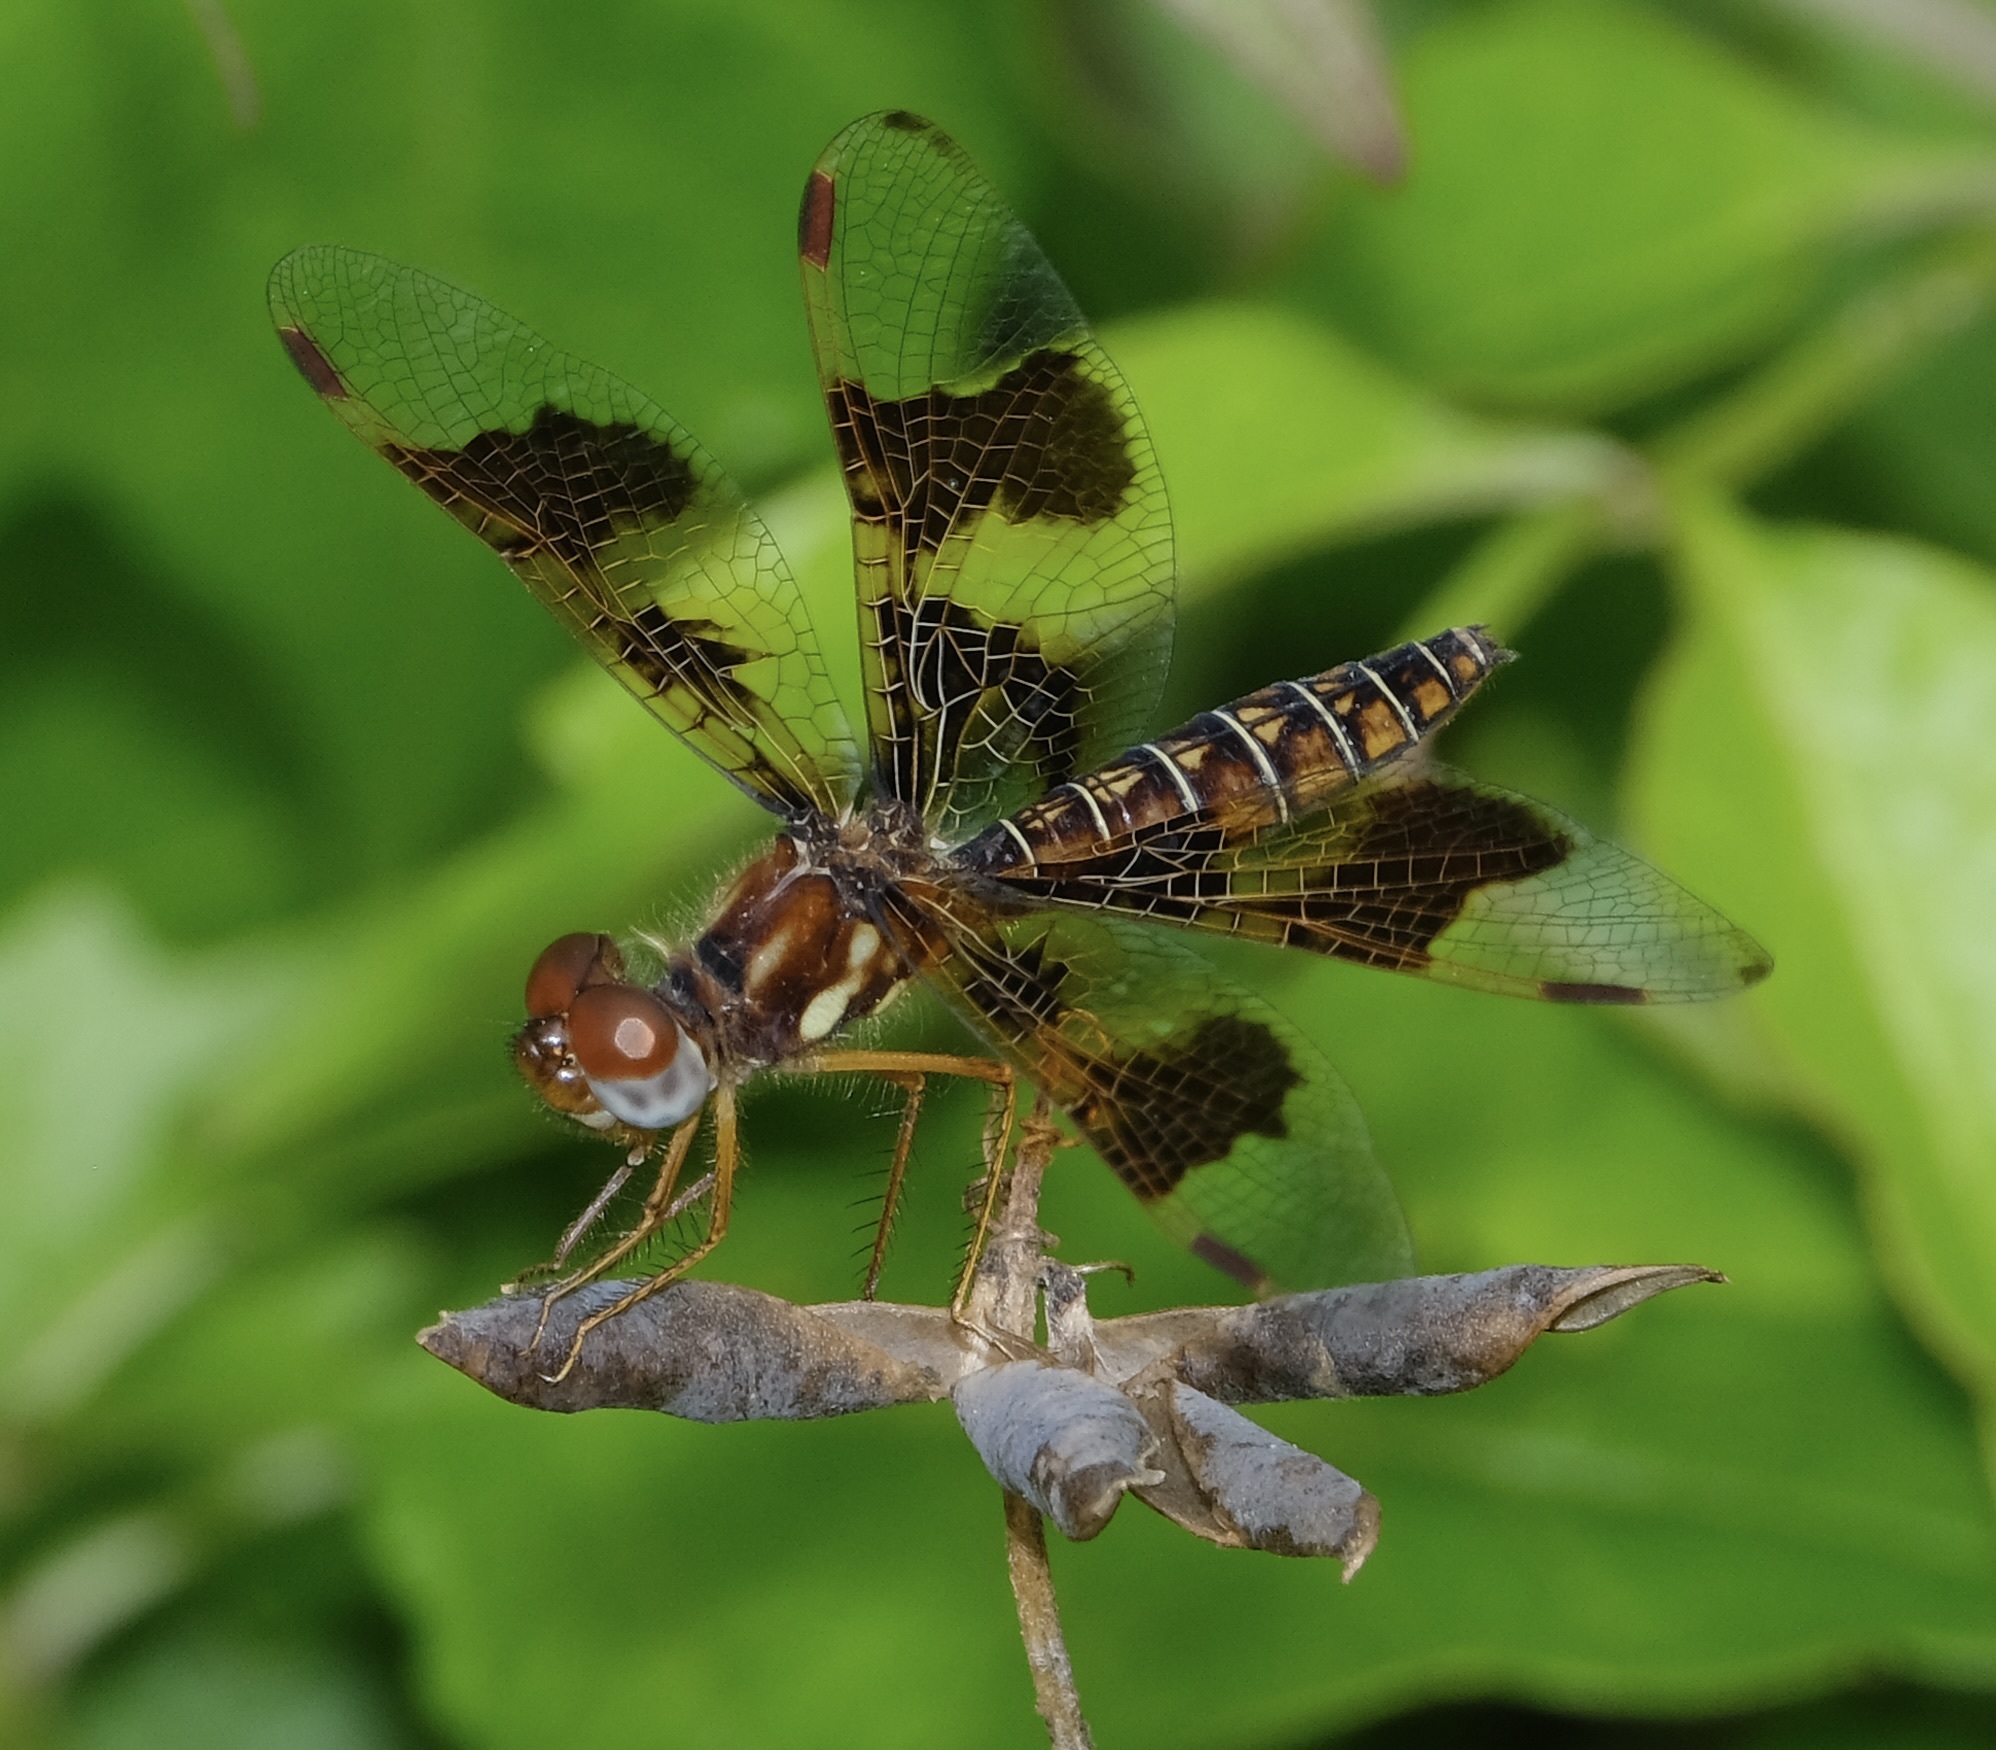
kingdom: Animalia
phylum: Arthropoda
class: Insecta
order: Odonata
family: Libellulidae
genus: Perithemis
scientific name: Perithemis tenera
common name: Eastern amberwing
